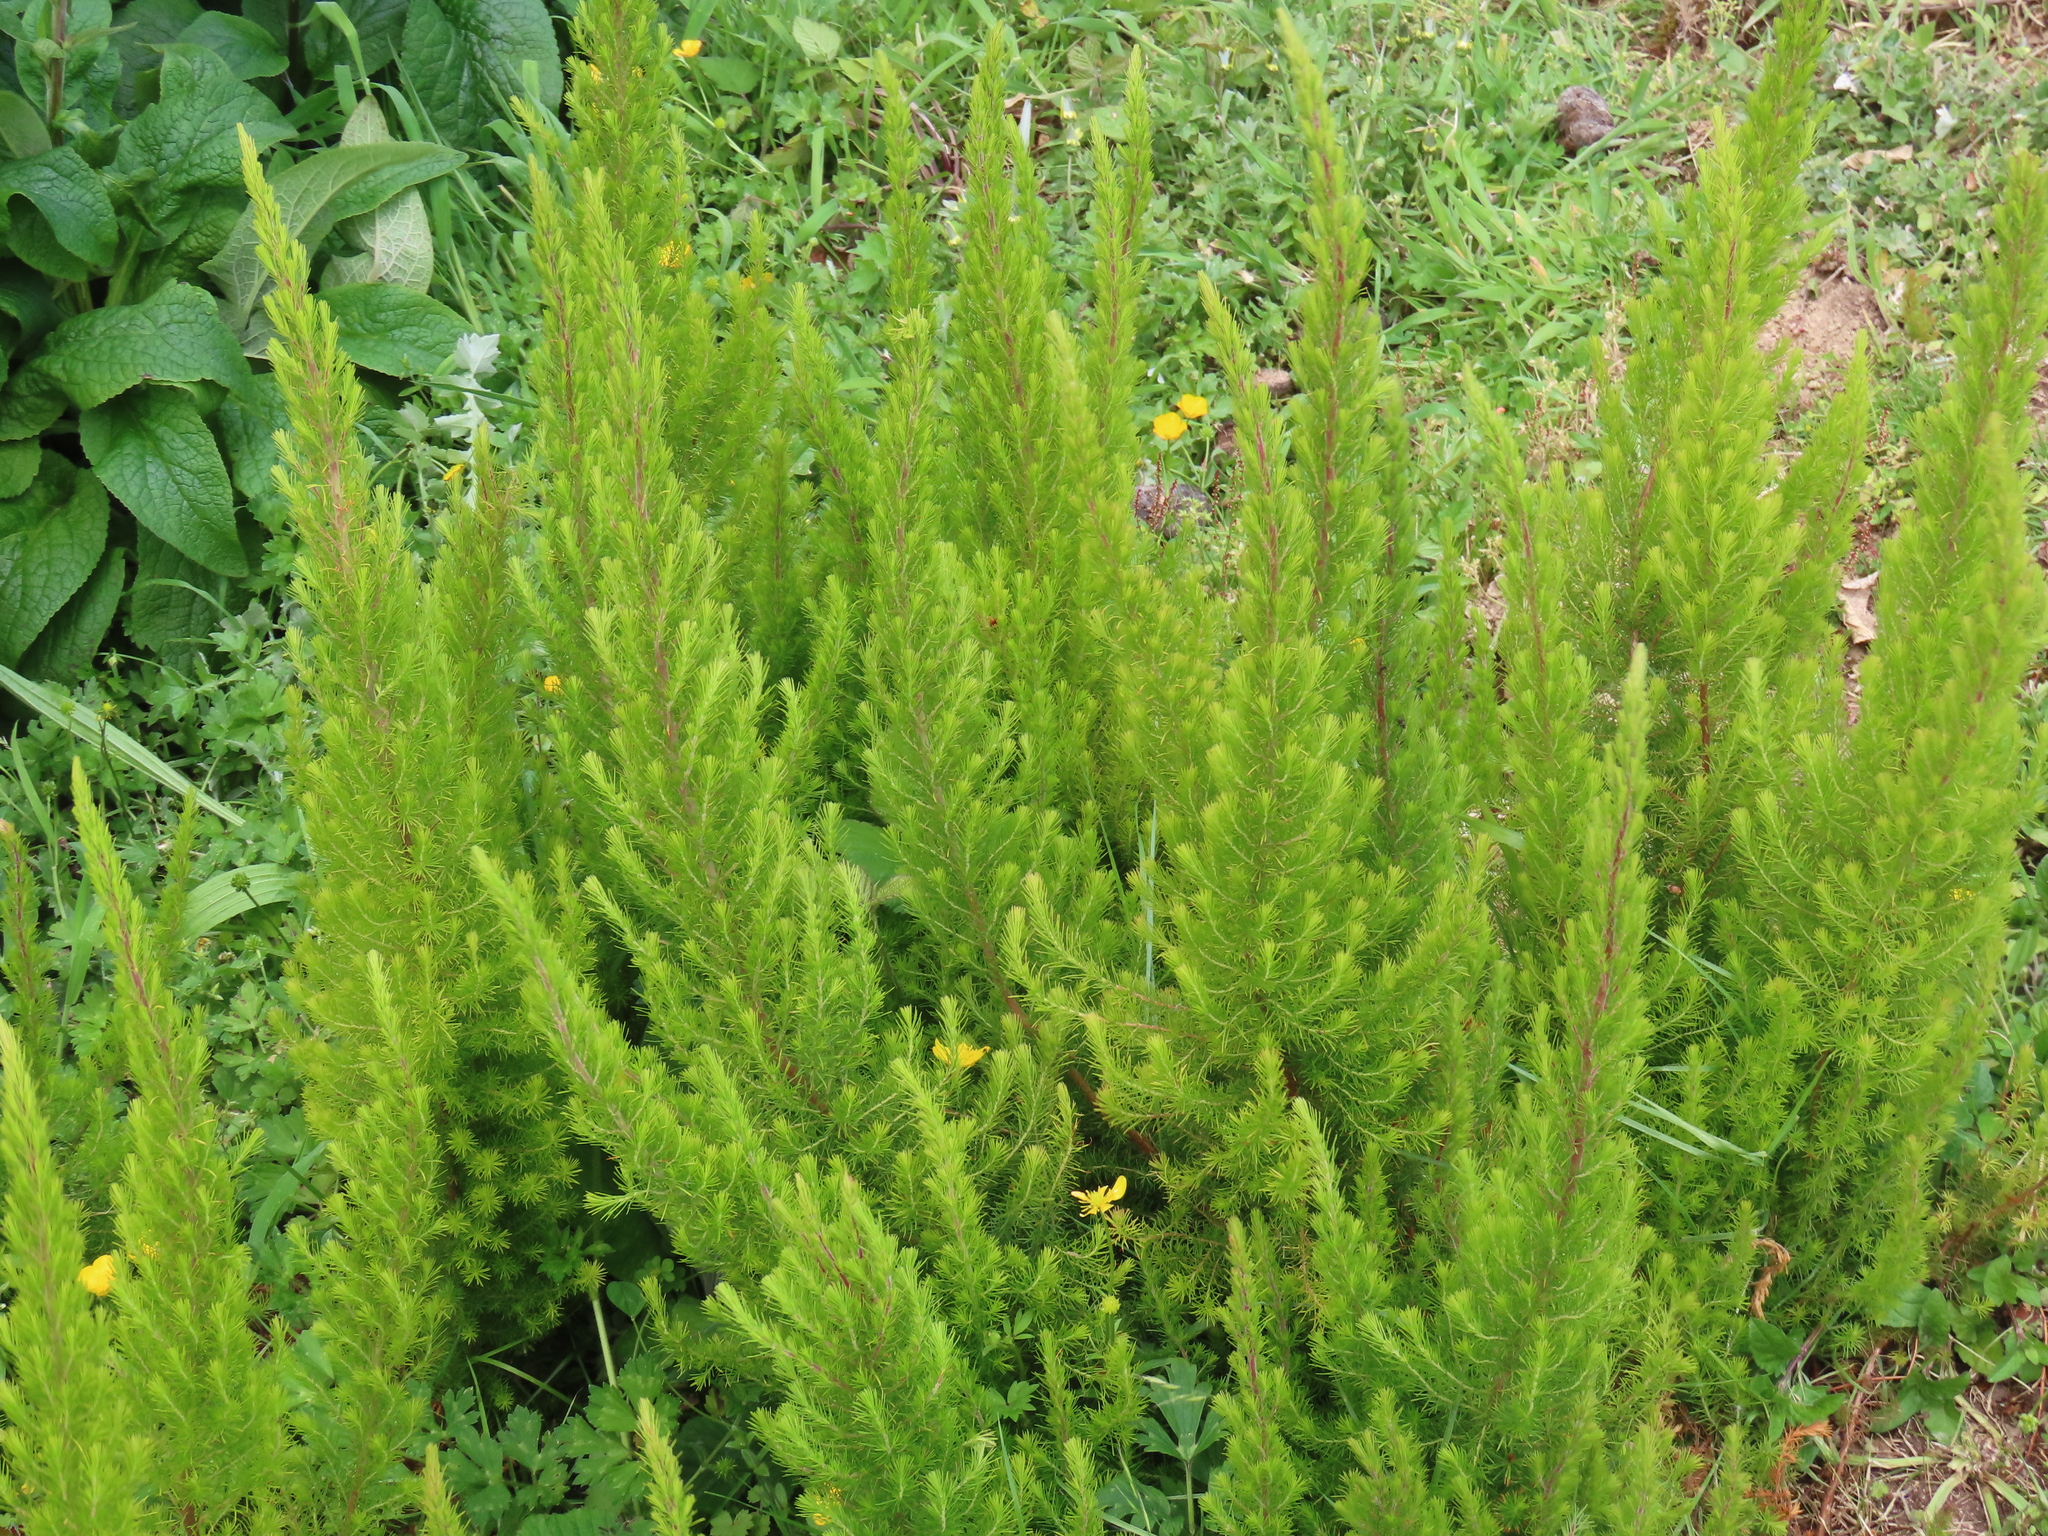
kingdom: Plantae
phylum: Tracheophyta
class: Magnoliopsida
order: Ericales
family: Ericaceae
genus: Erica
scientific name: Erica lusitanica
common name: Spanish heath
